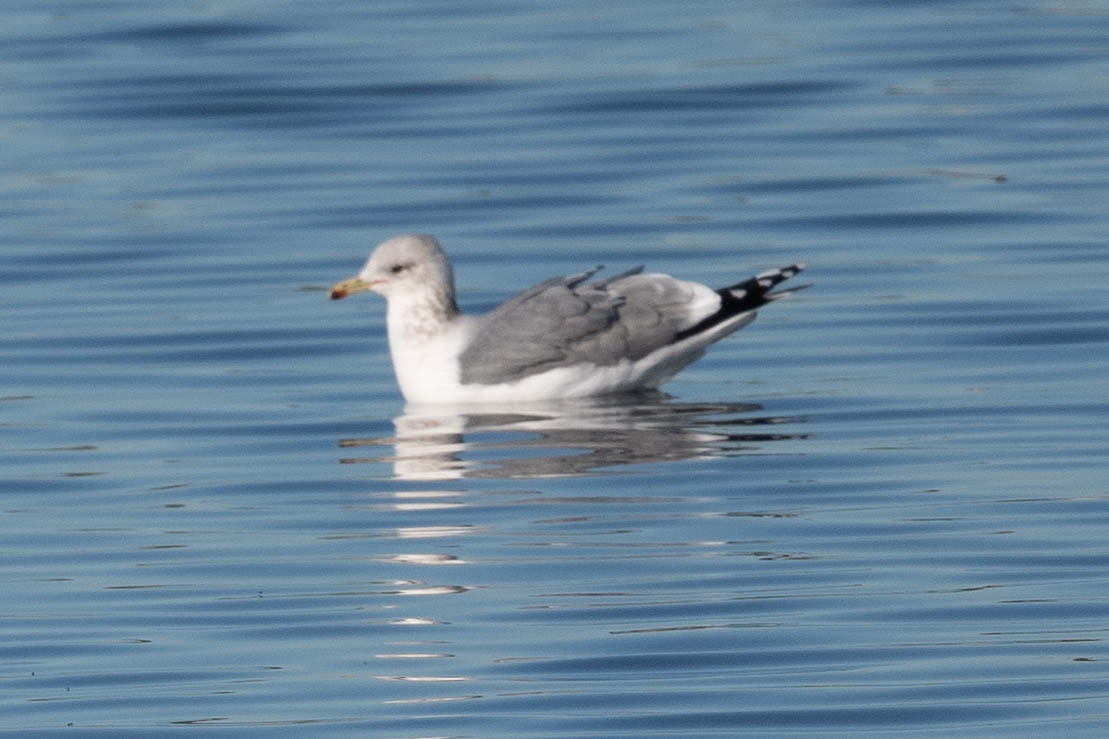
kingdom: Animalia
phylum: Chordata
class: Aves
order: Charadriiformes
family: Laridae
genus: Larus
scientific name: Larus californicus
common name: California gull
